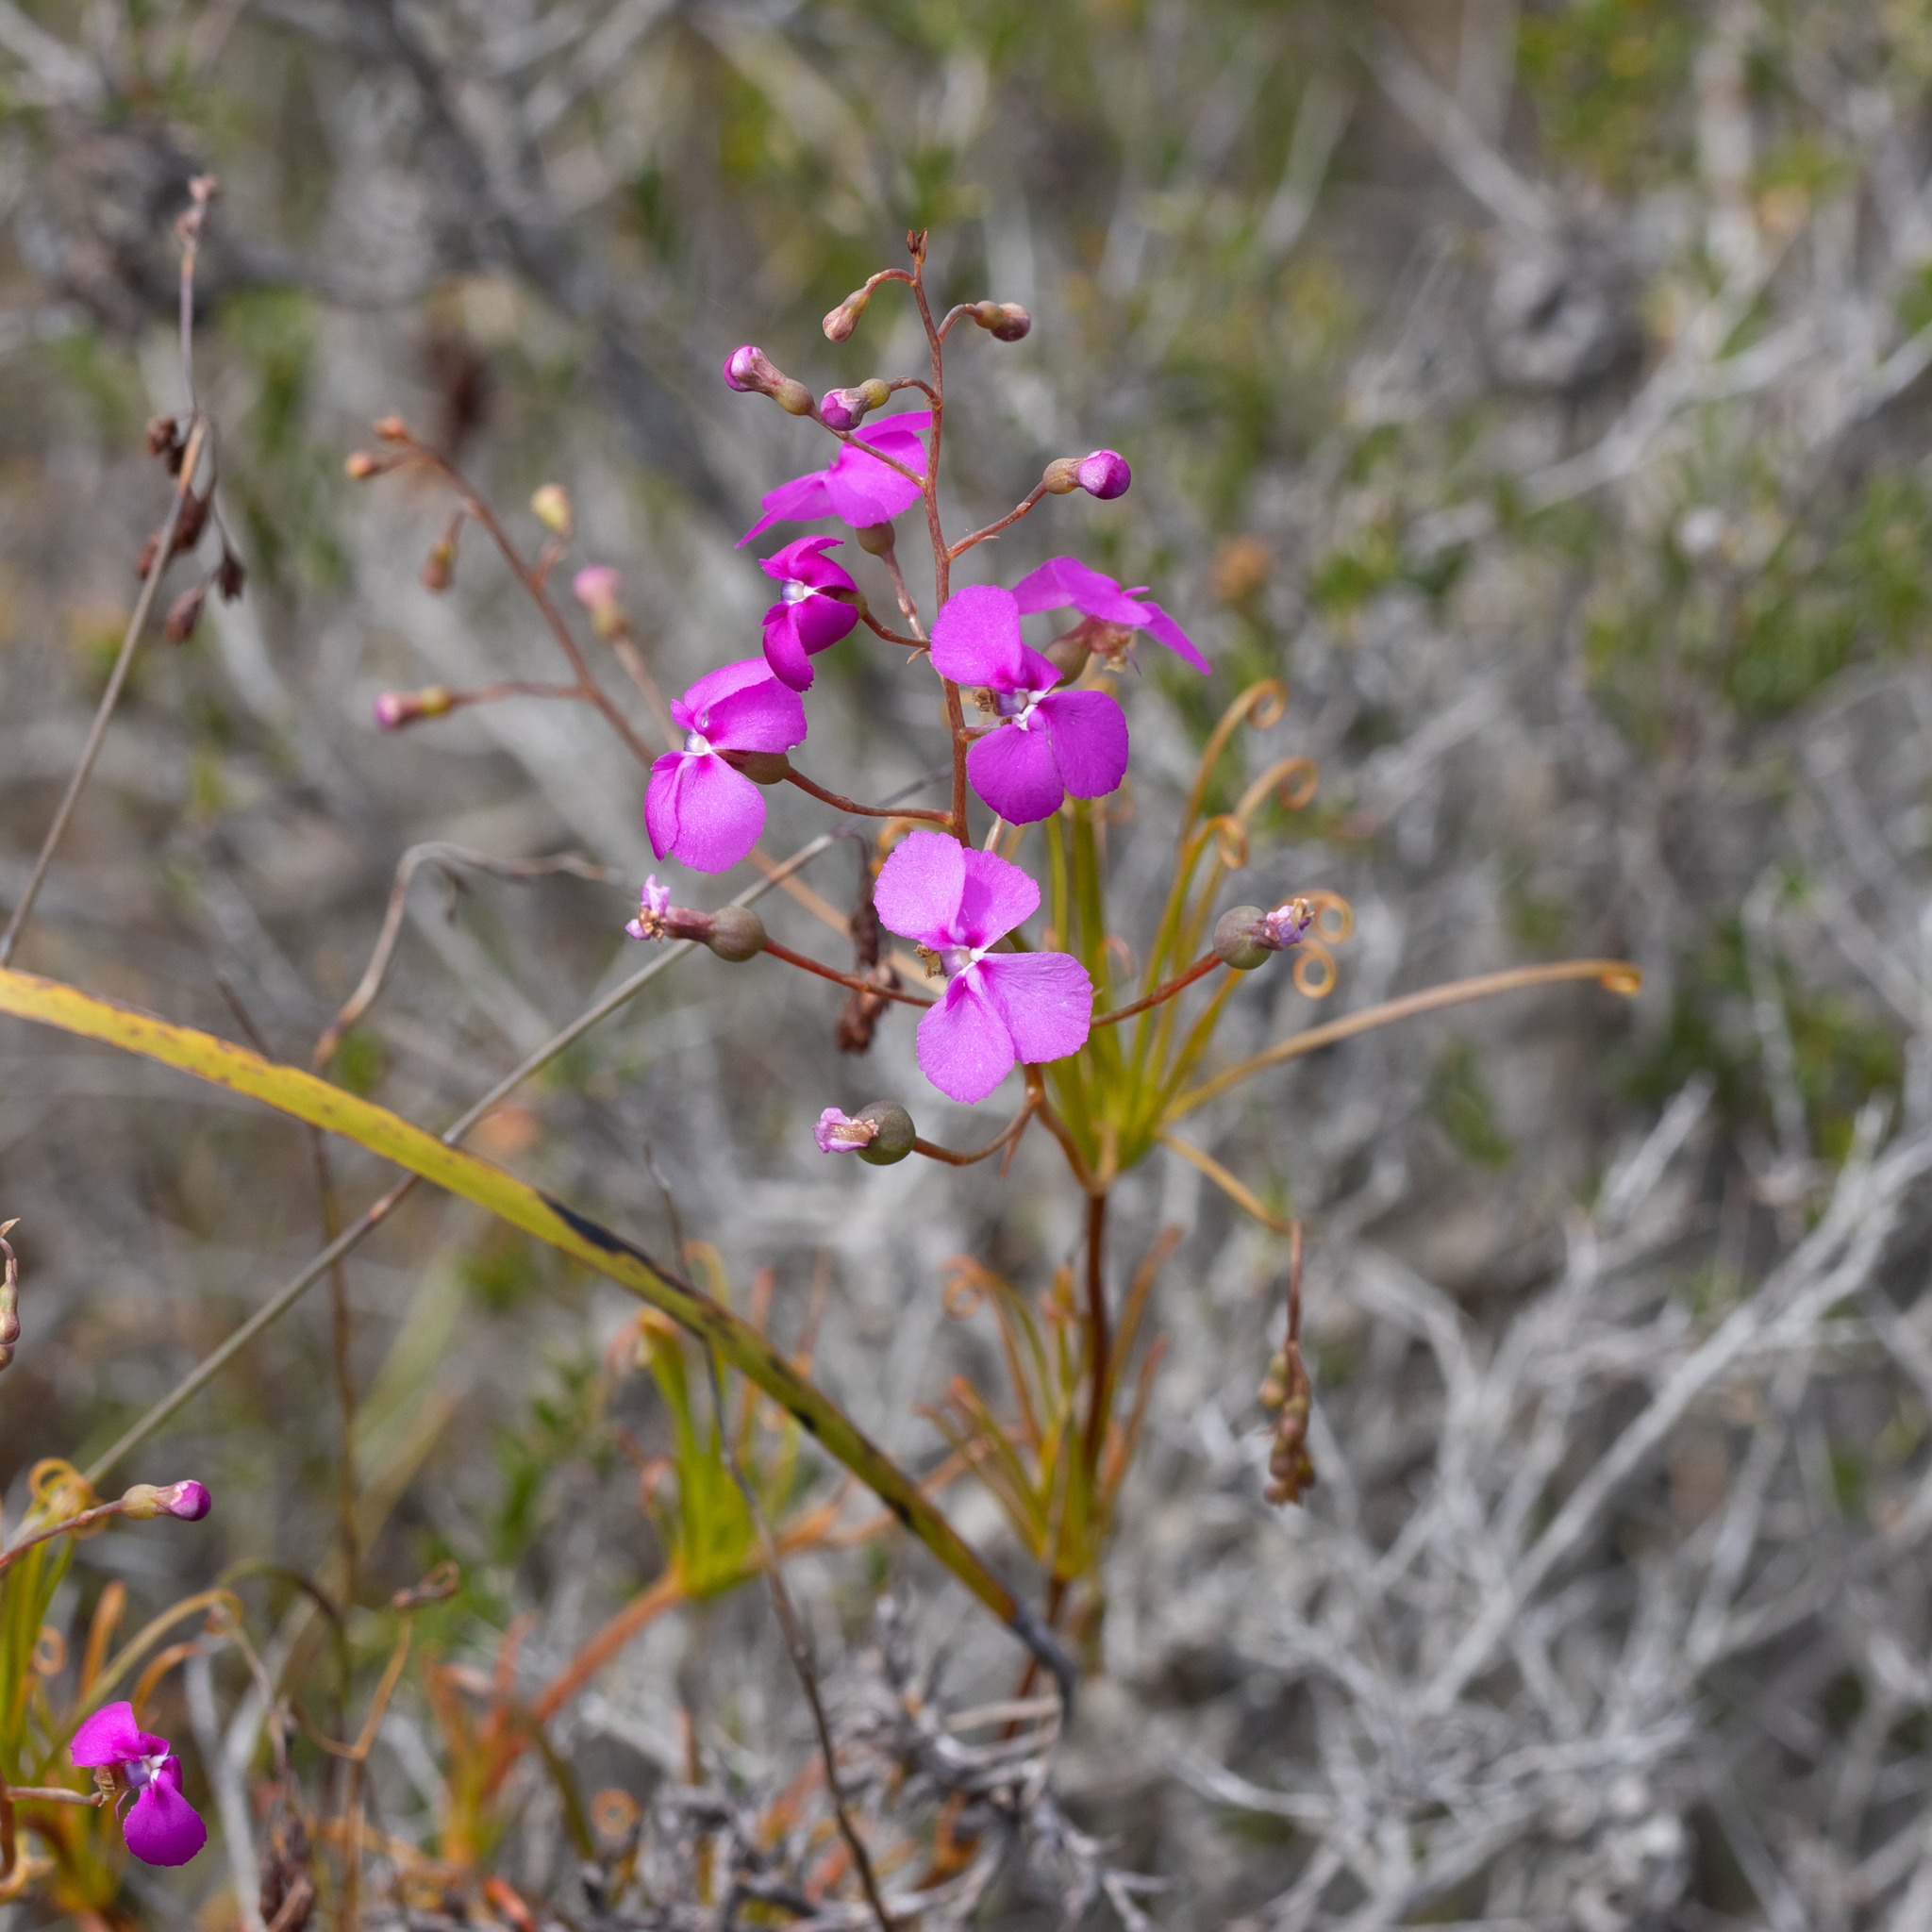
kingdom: Plantae
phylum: Tracheophyta
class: Magnoliopsida
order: Asterales
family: Stylidiaceae
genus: Stylidium
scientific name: Stylidium scandens
